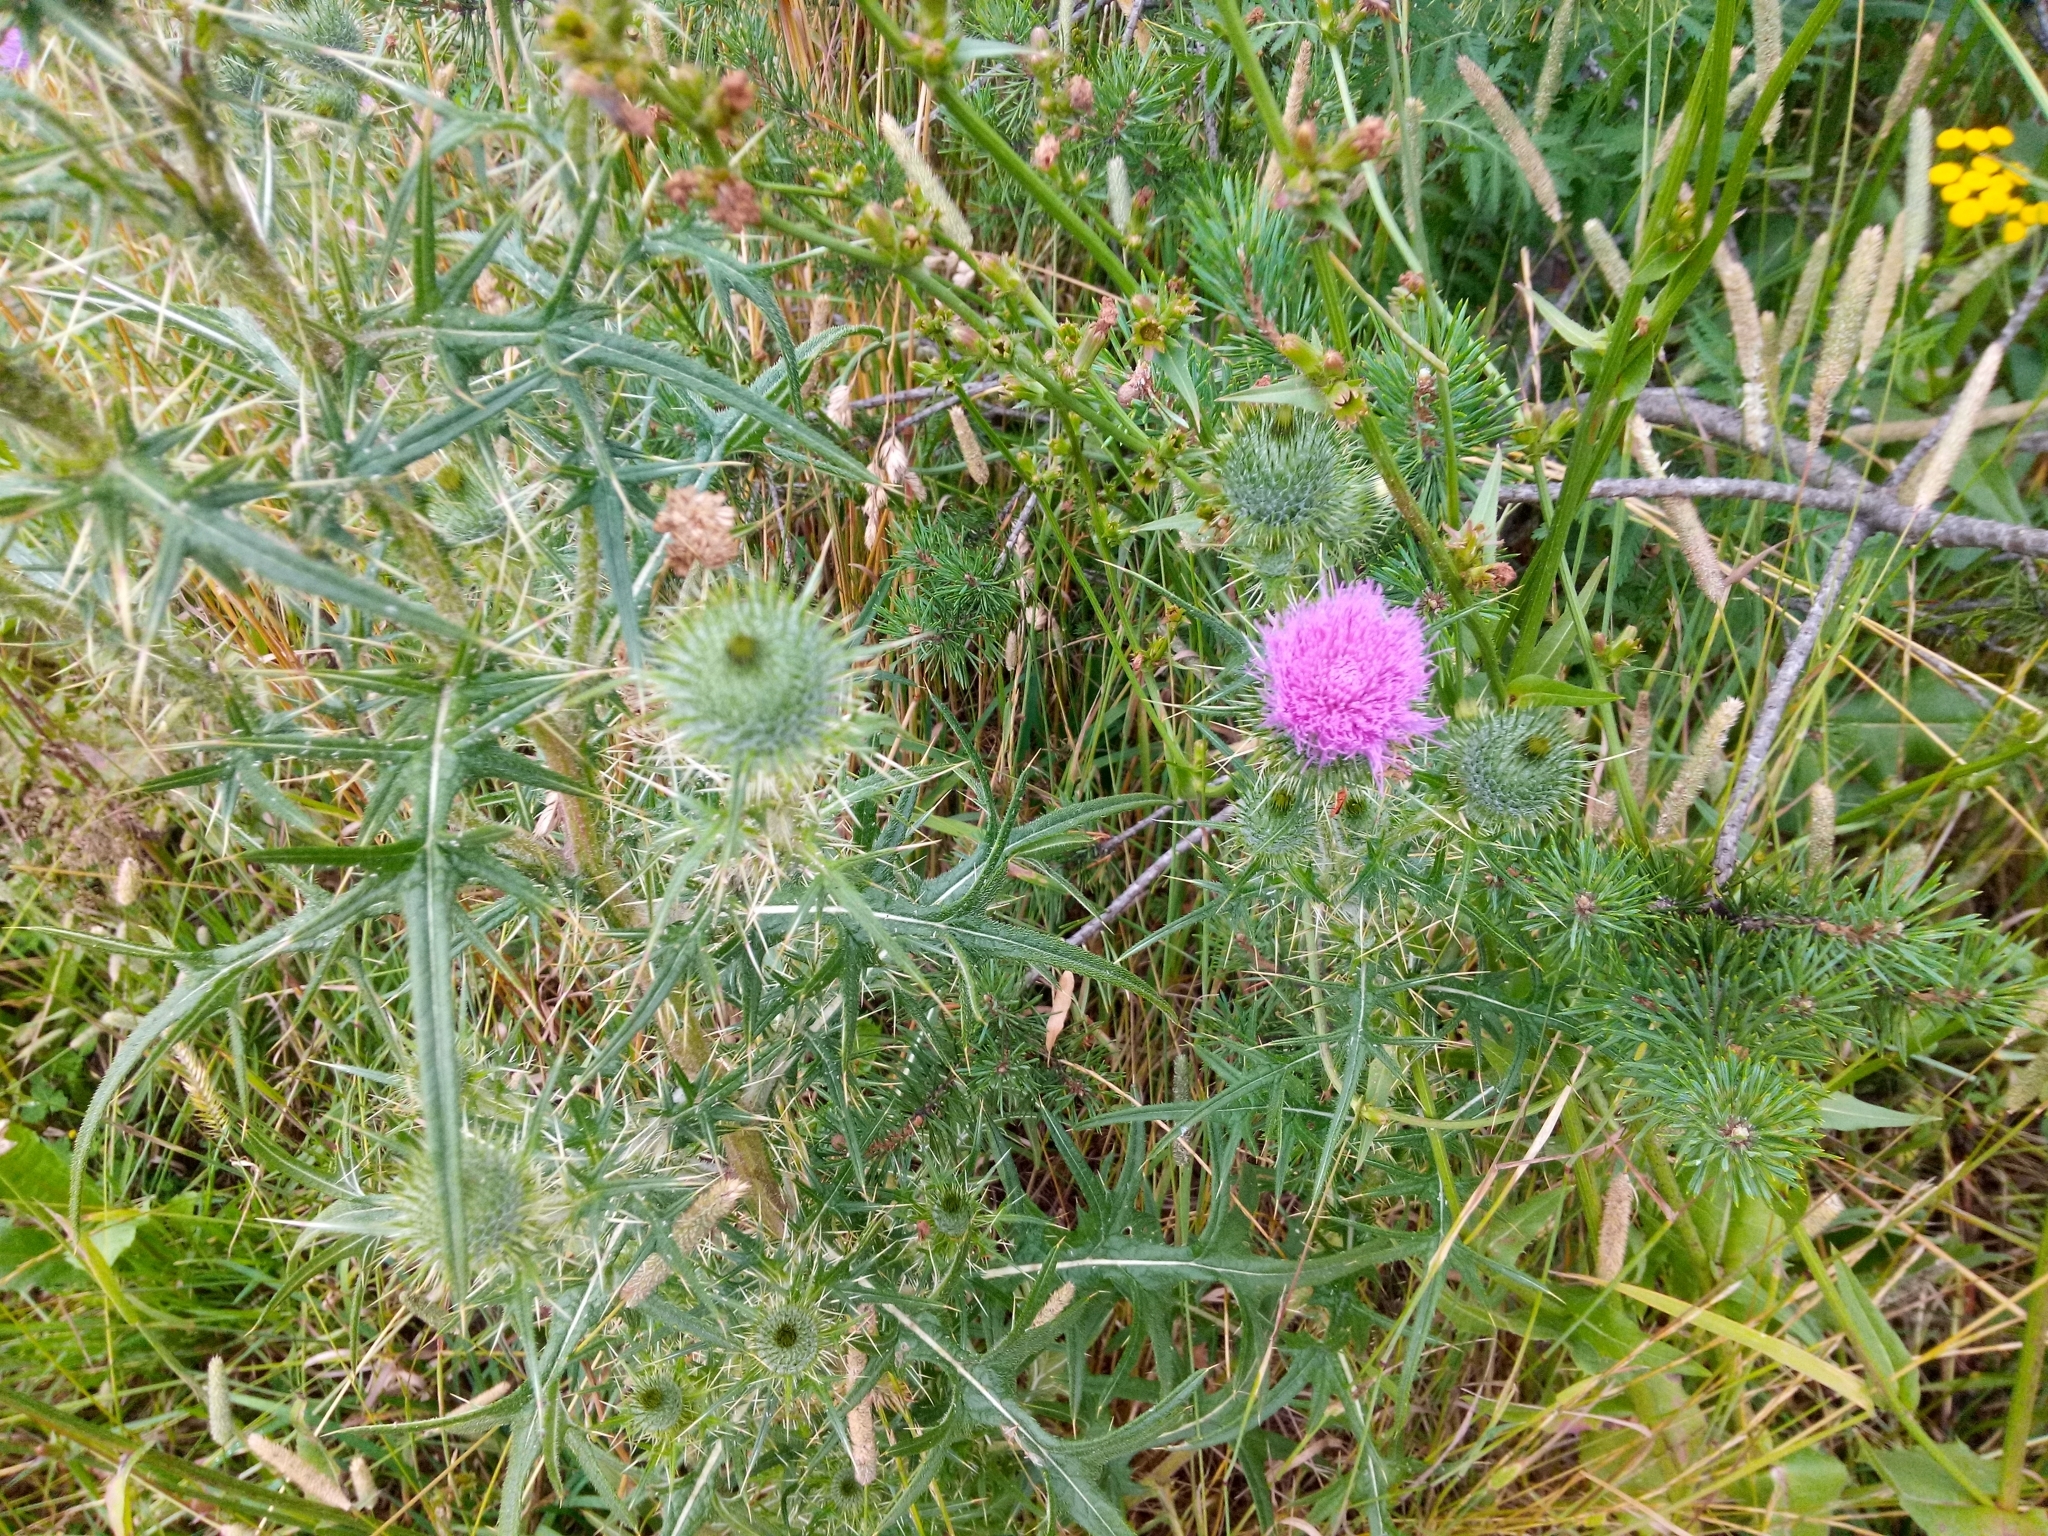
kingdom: Plantae
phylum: Tracheophyta
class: Magnoliopsida
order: Asterales
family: Asteraceae
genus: Cirsium
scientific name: Cirsium vulgare
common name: Bull thistle
